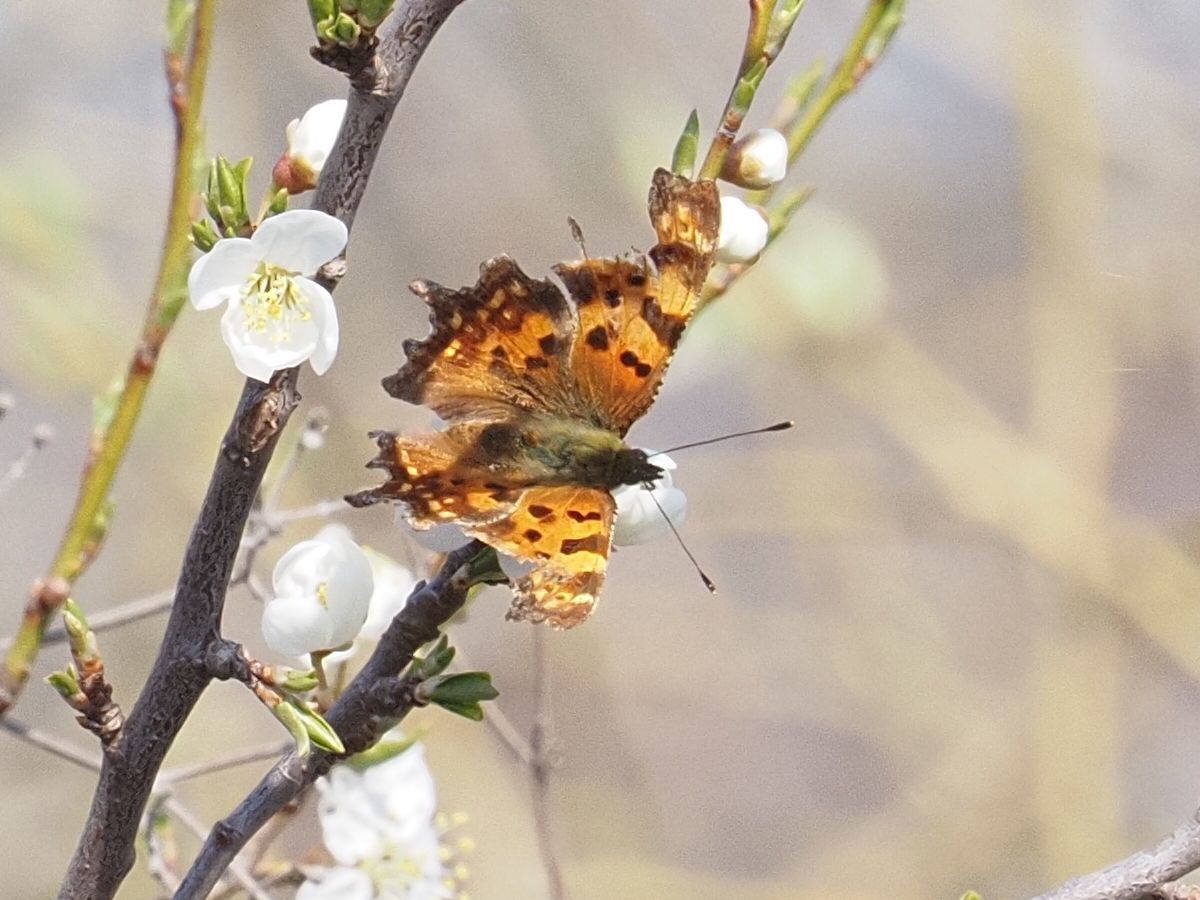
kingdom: Animalia
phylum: Arthropoda
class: Insecta
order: Lepidoptera
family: Nymphalidae
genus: Polygonia
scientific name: Polygonia c-album
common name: Comma
